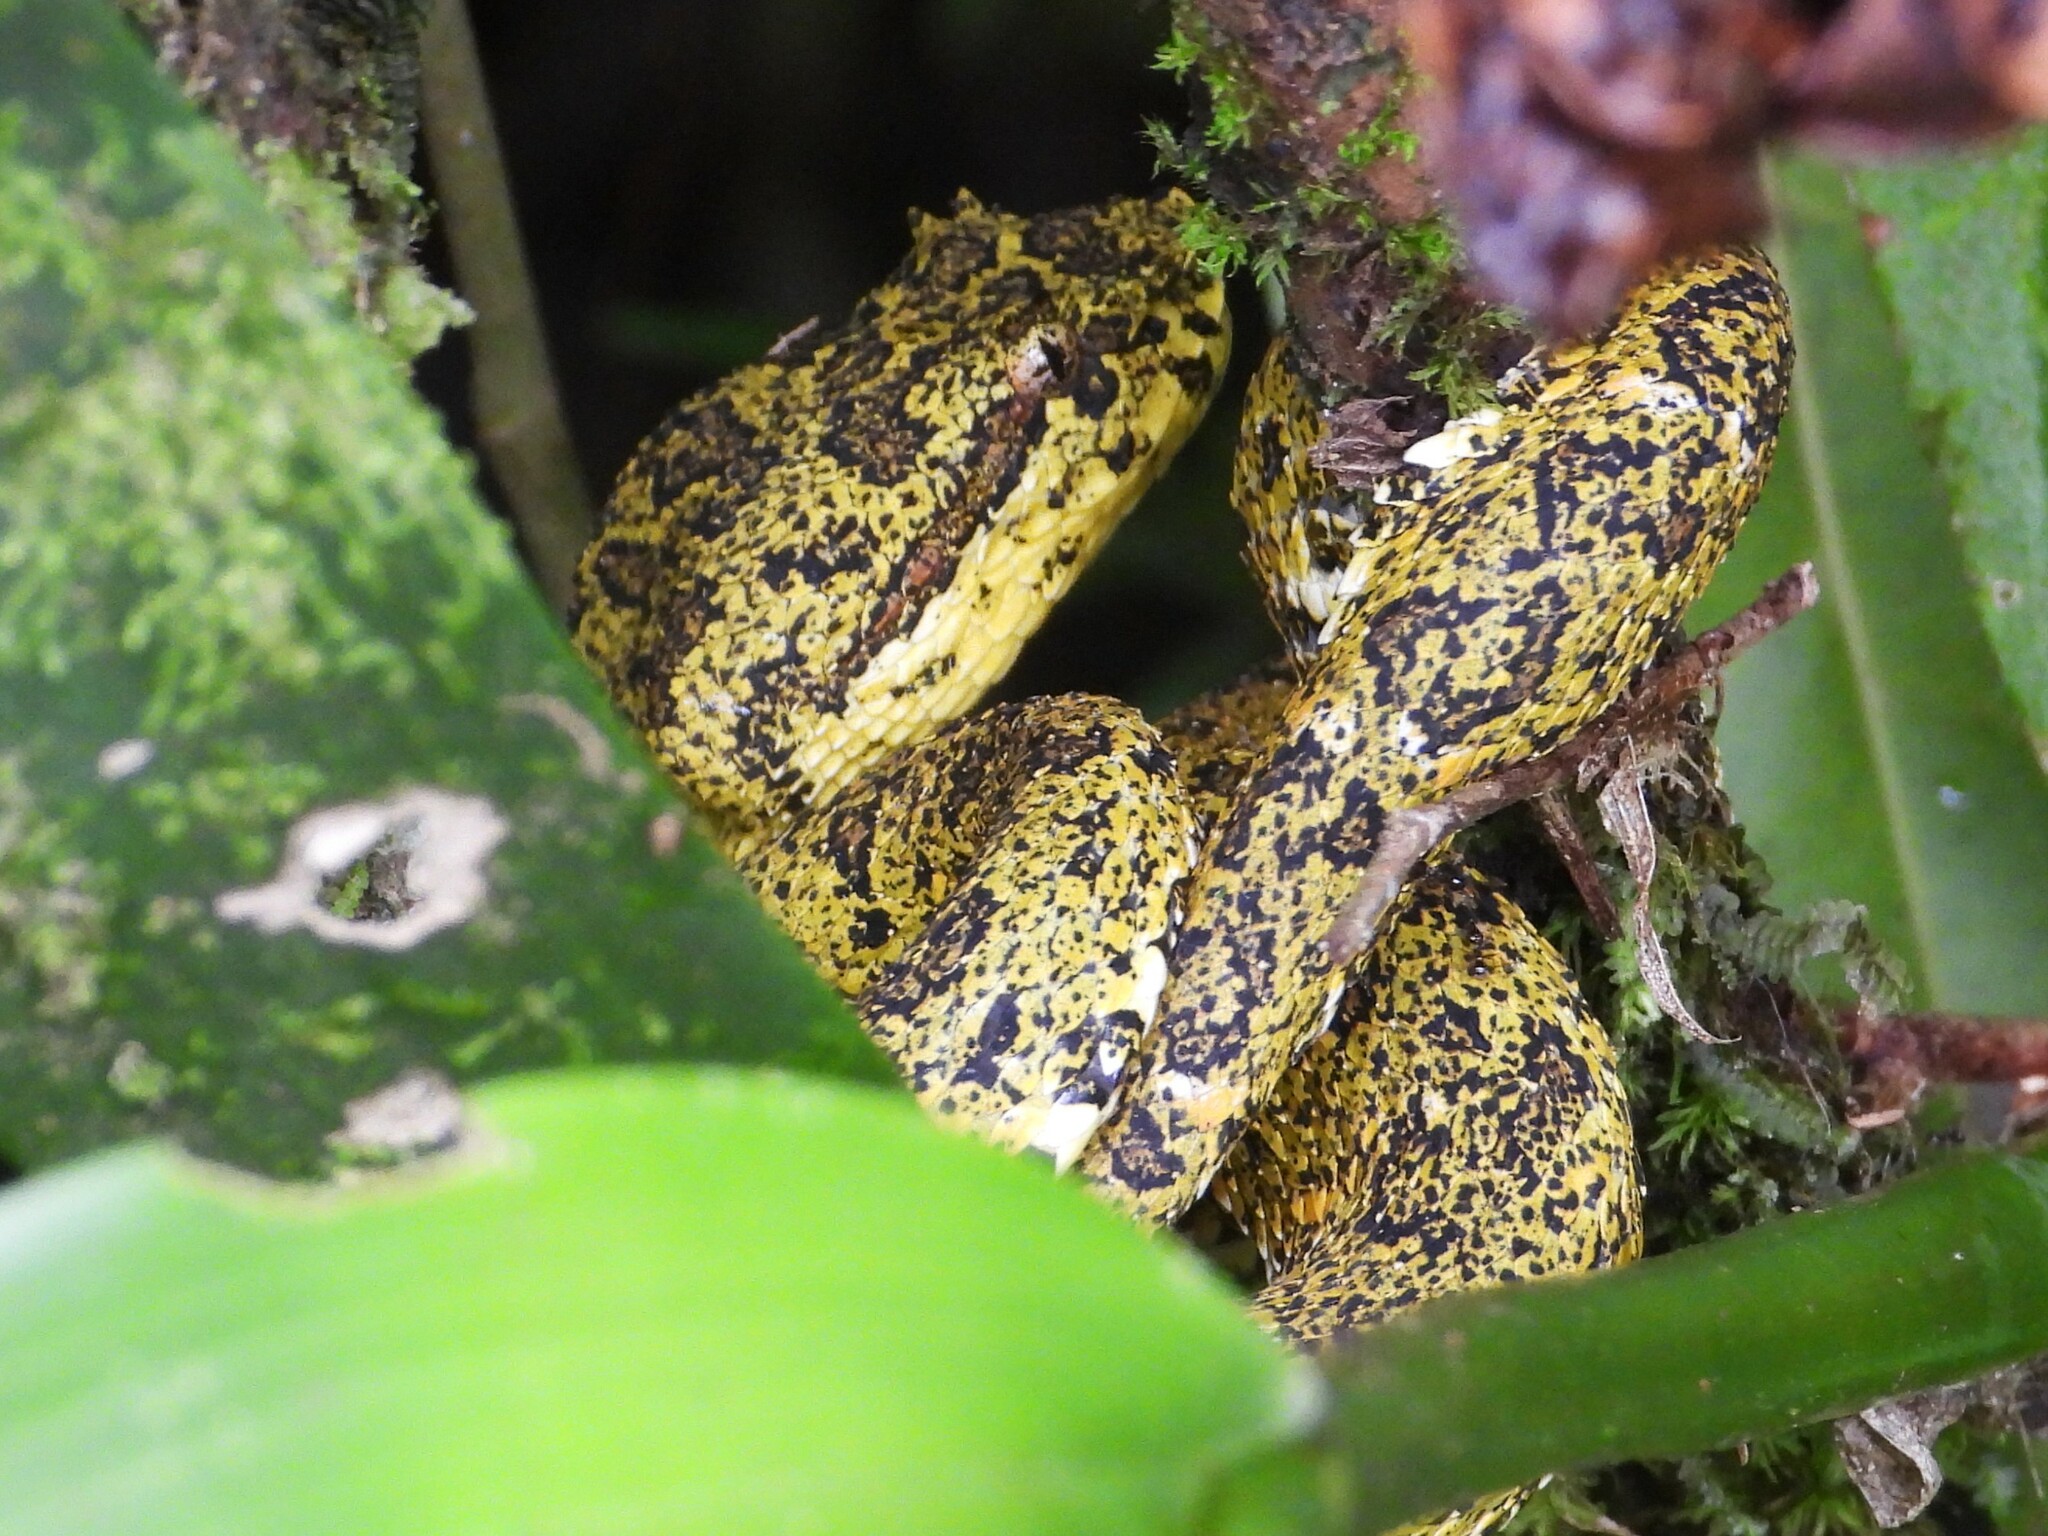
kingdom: Animalia
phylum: Chordata
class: Squamata
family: Viperidae
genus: Bothriechis
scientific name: Bothriechis schlegelii
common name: Eyelash viper
